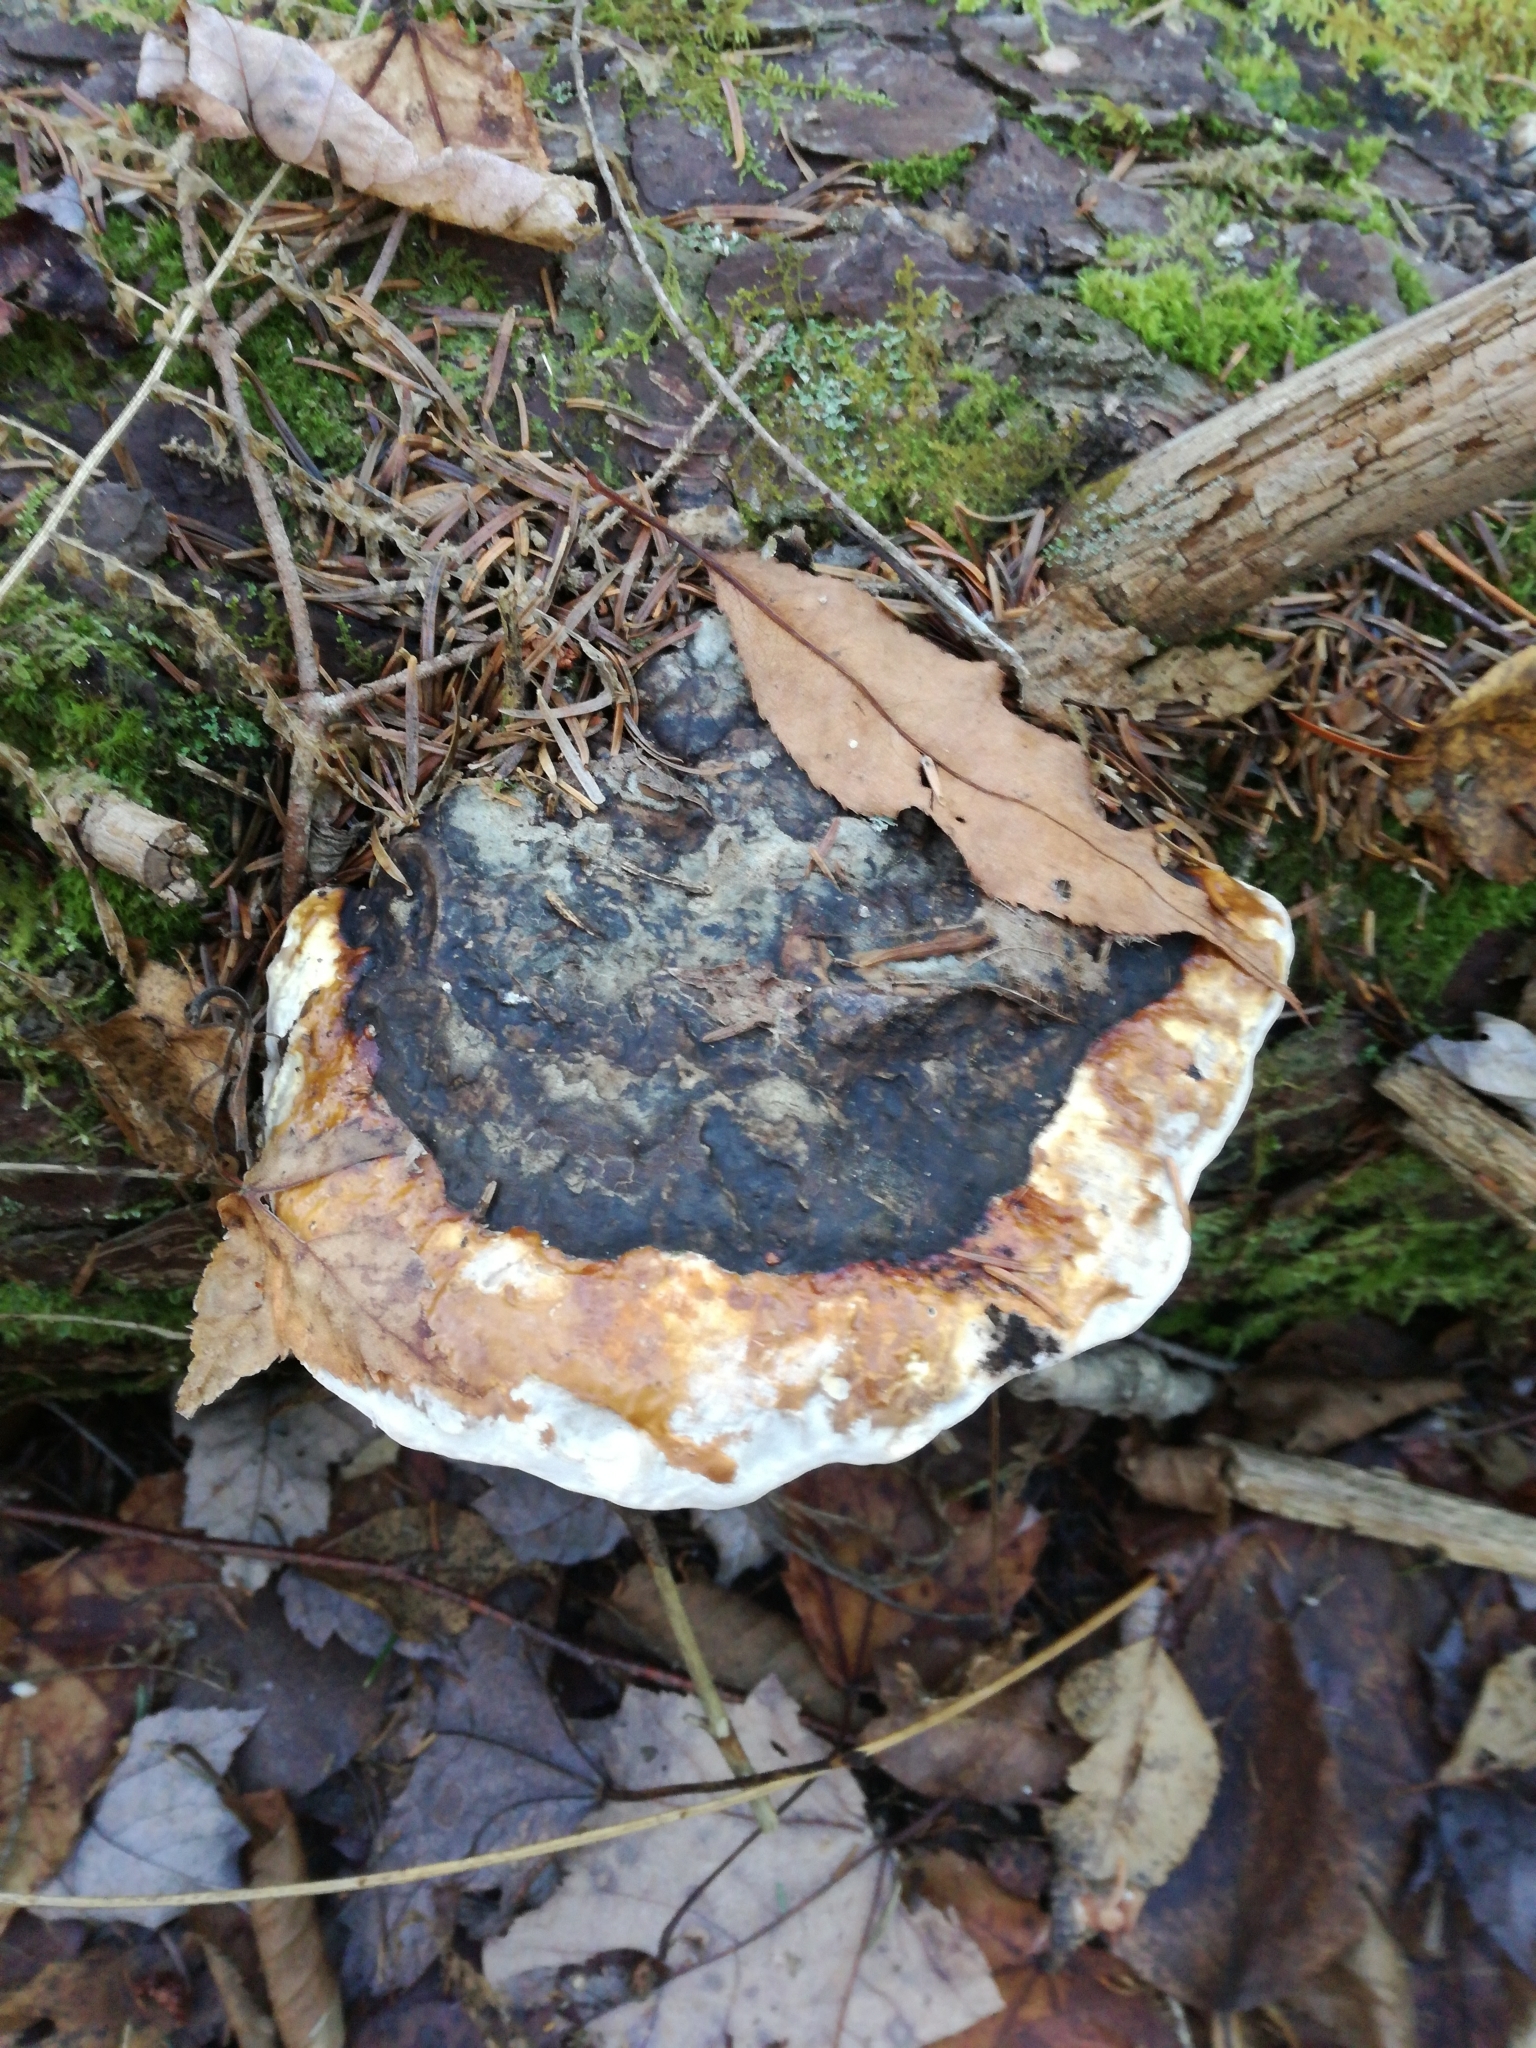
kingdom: Fungi
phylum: Basidiomycota
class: Agaricomycetes
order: Polyporales
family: Fomitopsidaceae
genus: Fomitopsis
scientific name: Fomitopsis mounceae
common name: Northern red belt
